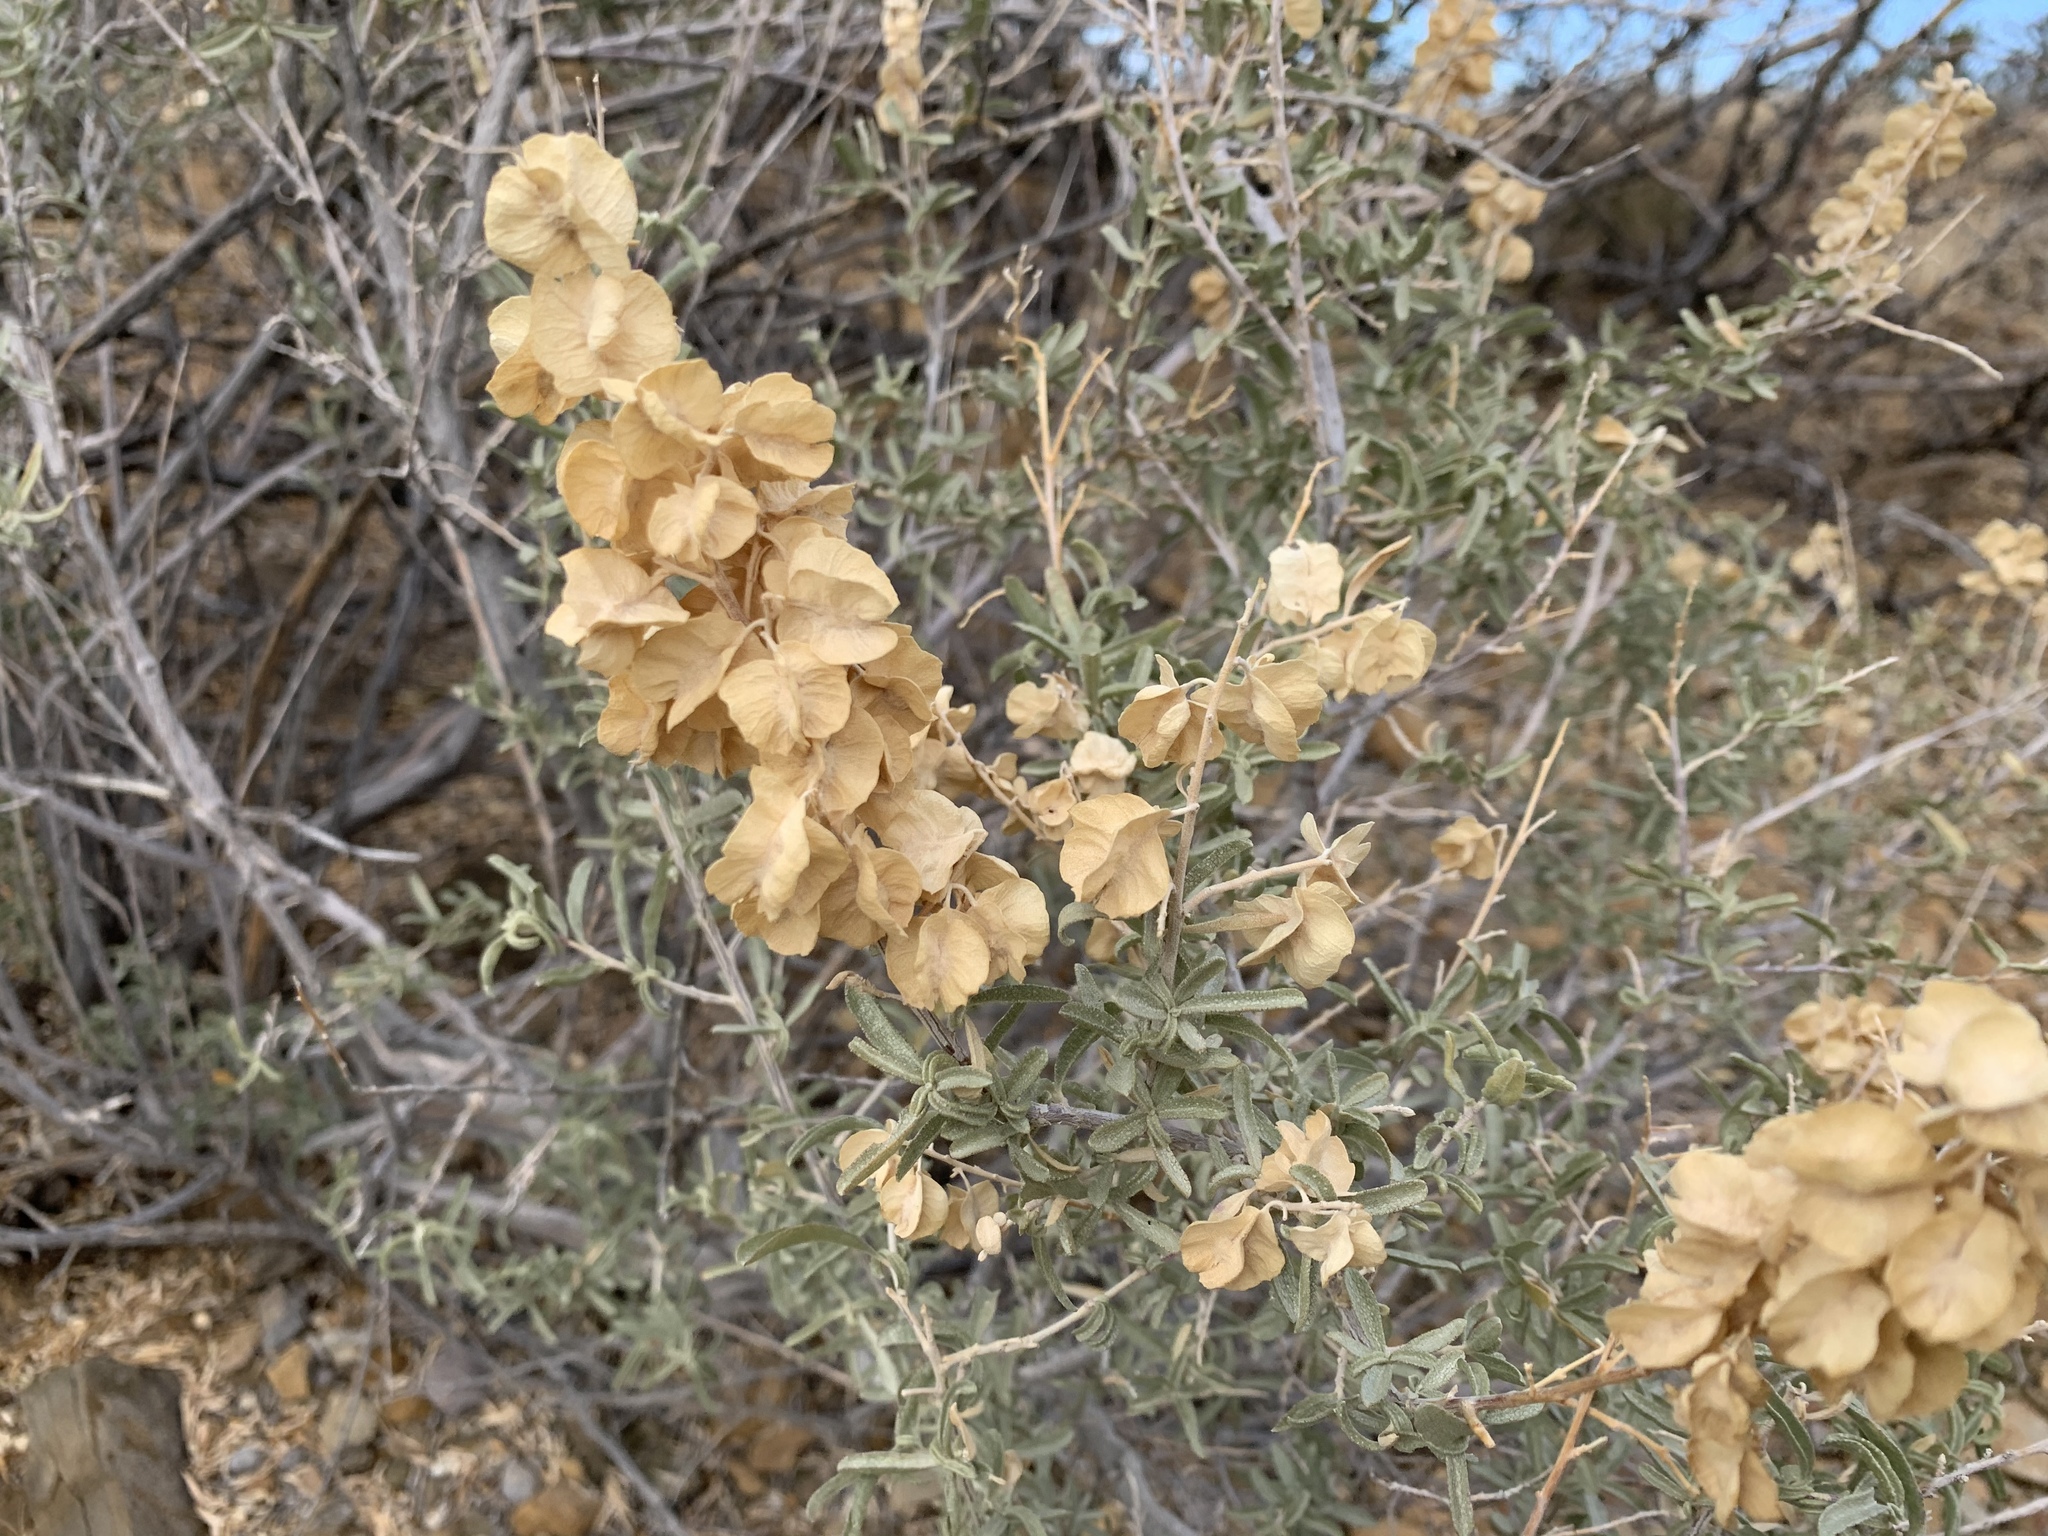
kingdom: Plantae
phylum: Tracheophyta
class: Magnoliopsida
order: Caryophyllales
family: Amaranthaceae
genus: Atriplex
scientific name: Atriplex canescens
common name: Four-wing saltbush
